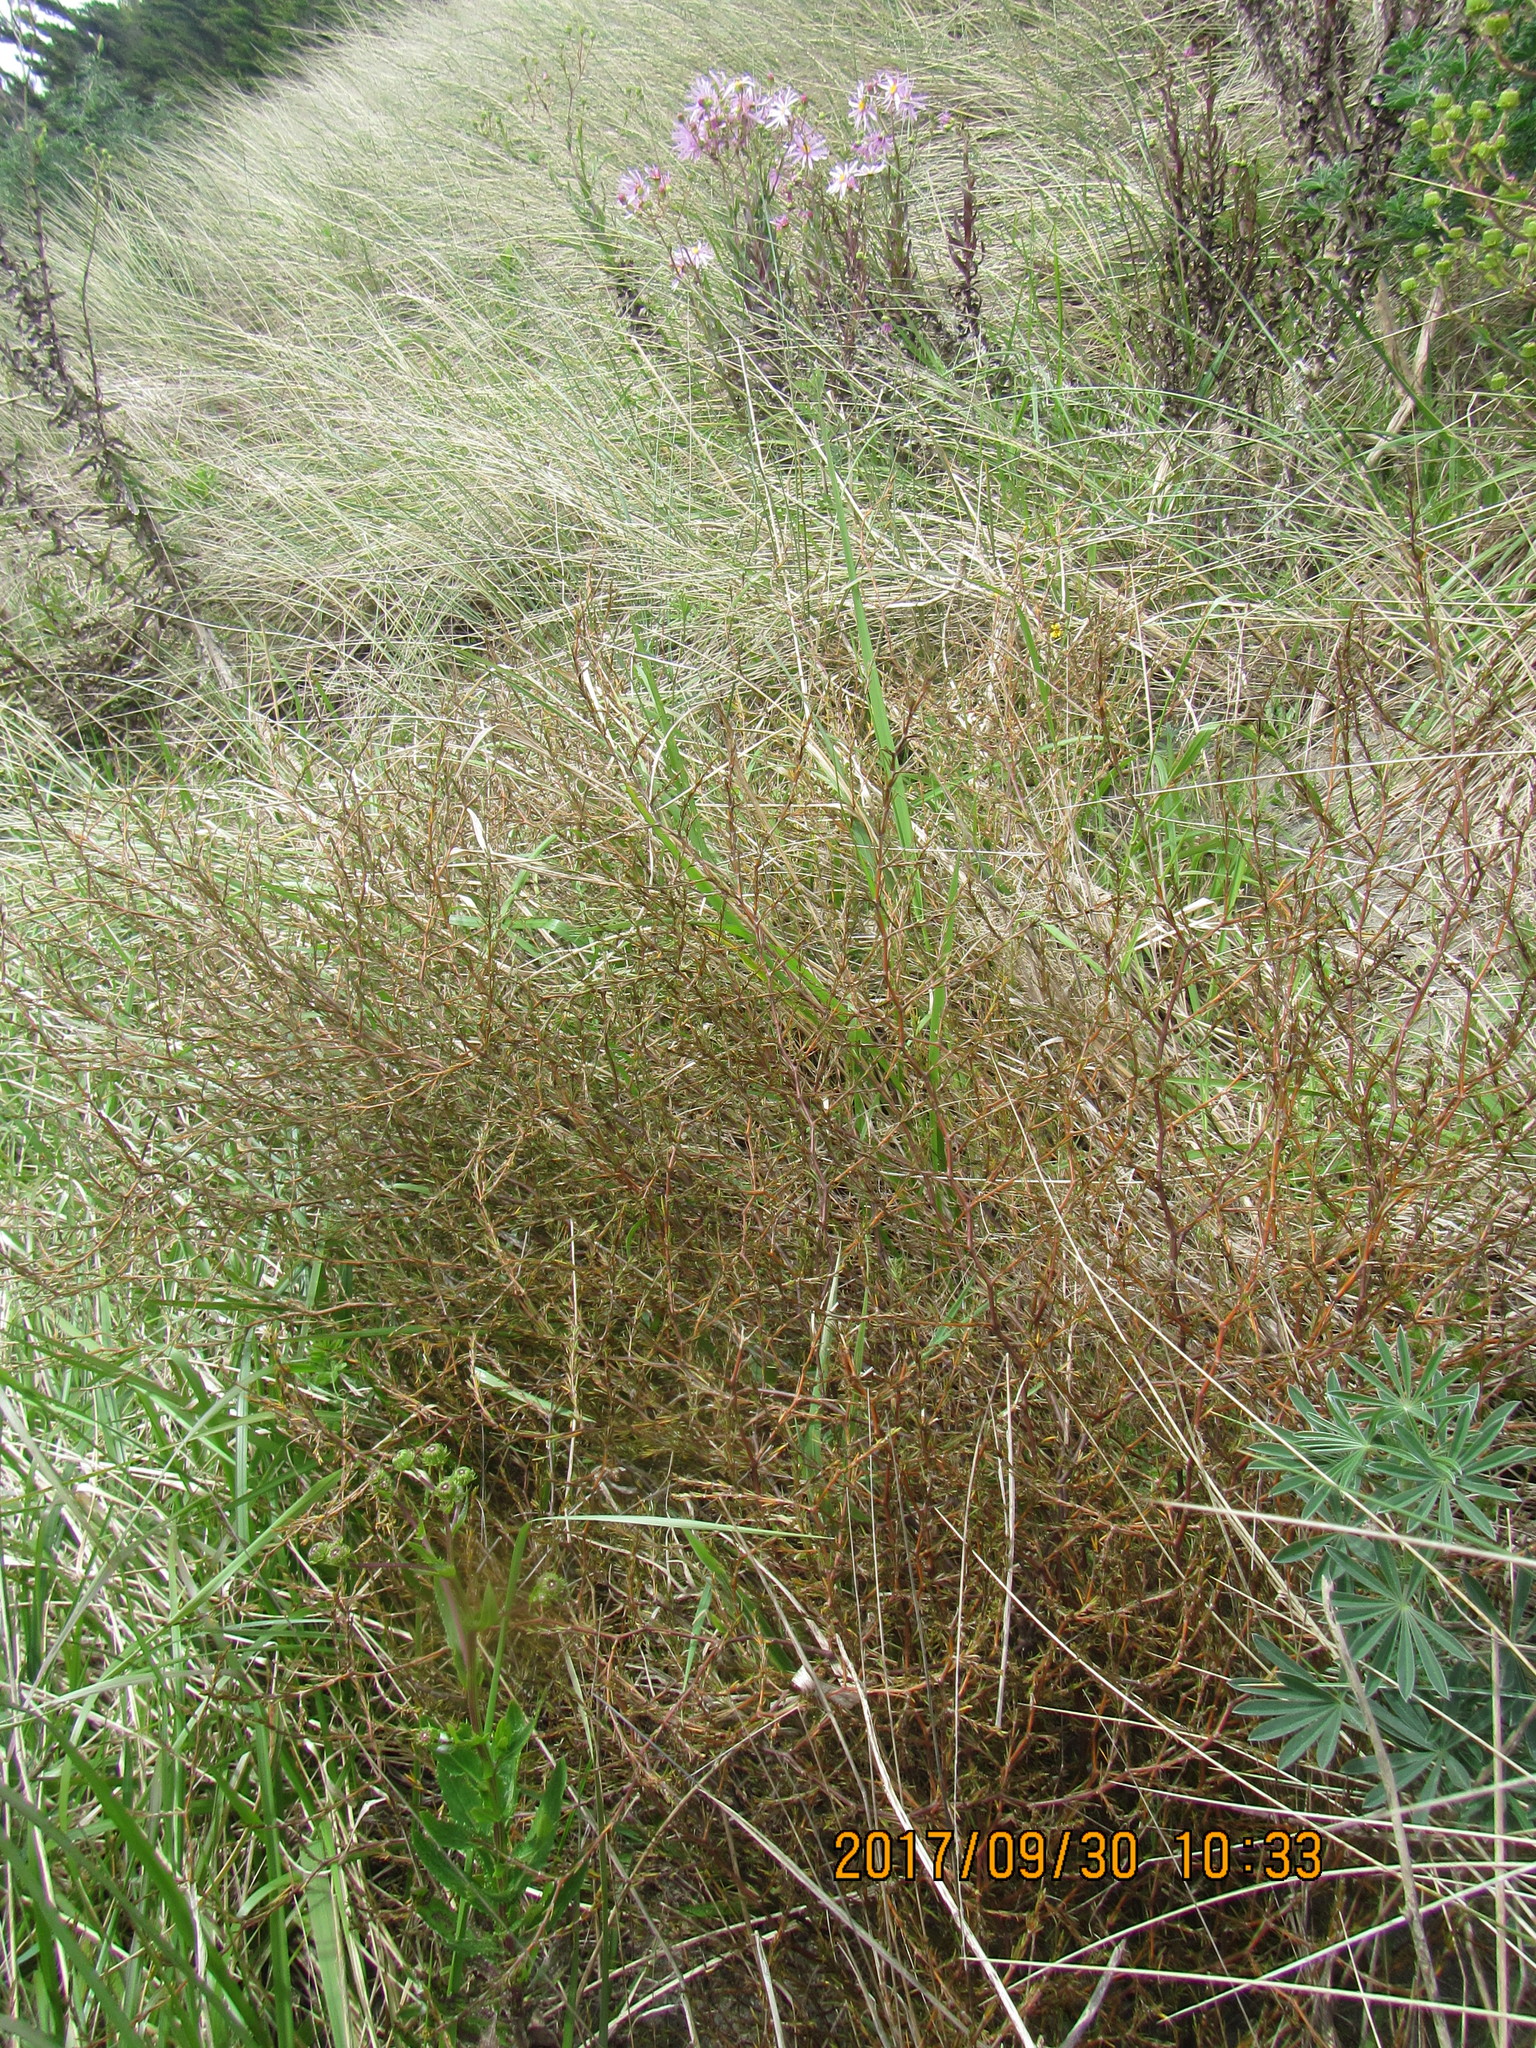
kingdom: Plantae
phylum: Tracheophyta
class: Magnoliopsida
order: Gentianales
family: Rubiaceae
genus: Coprosma
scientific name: Coprosma acerosa
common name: Sand coprosma
